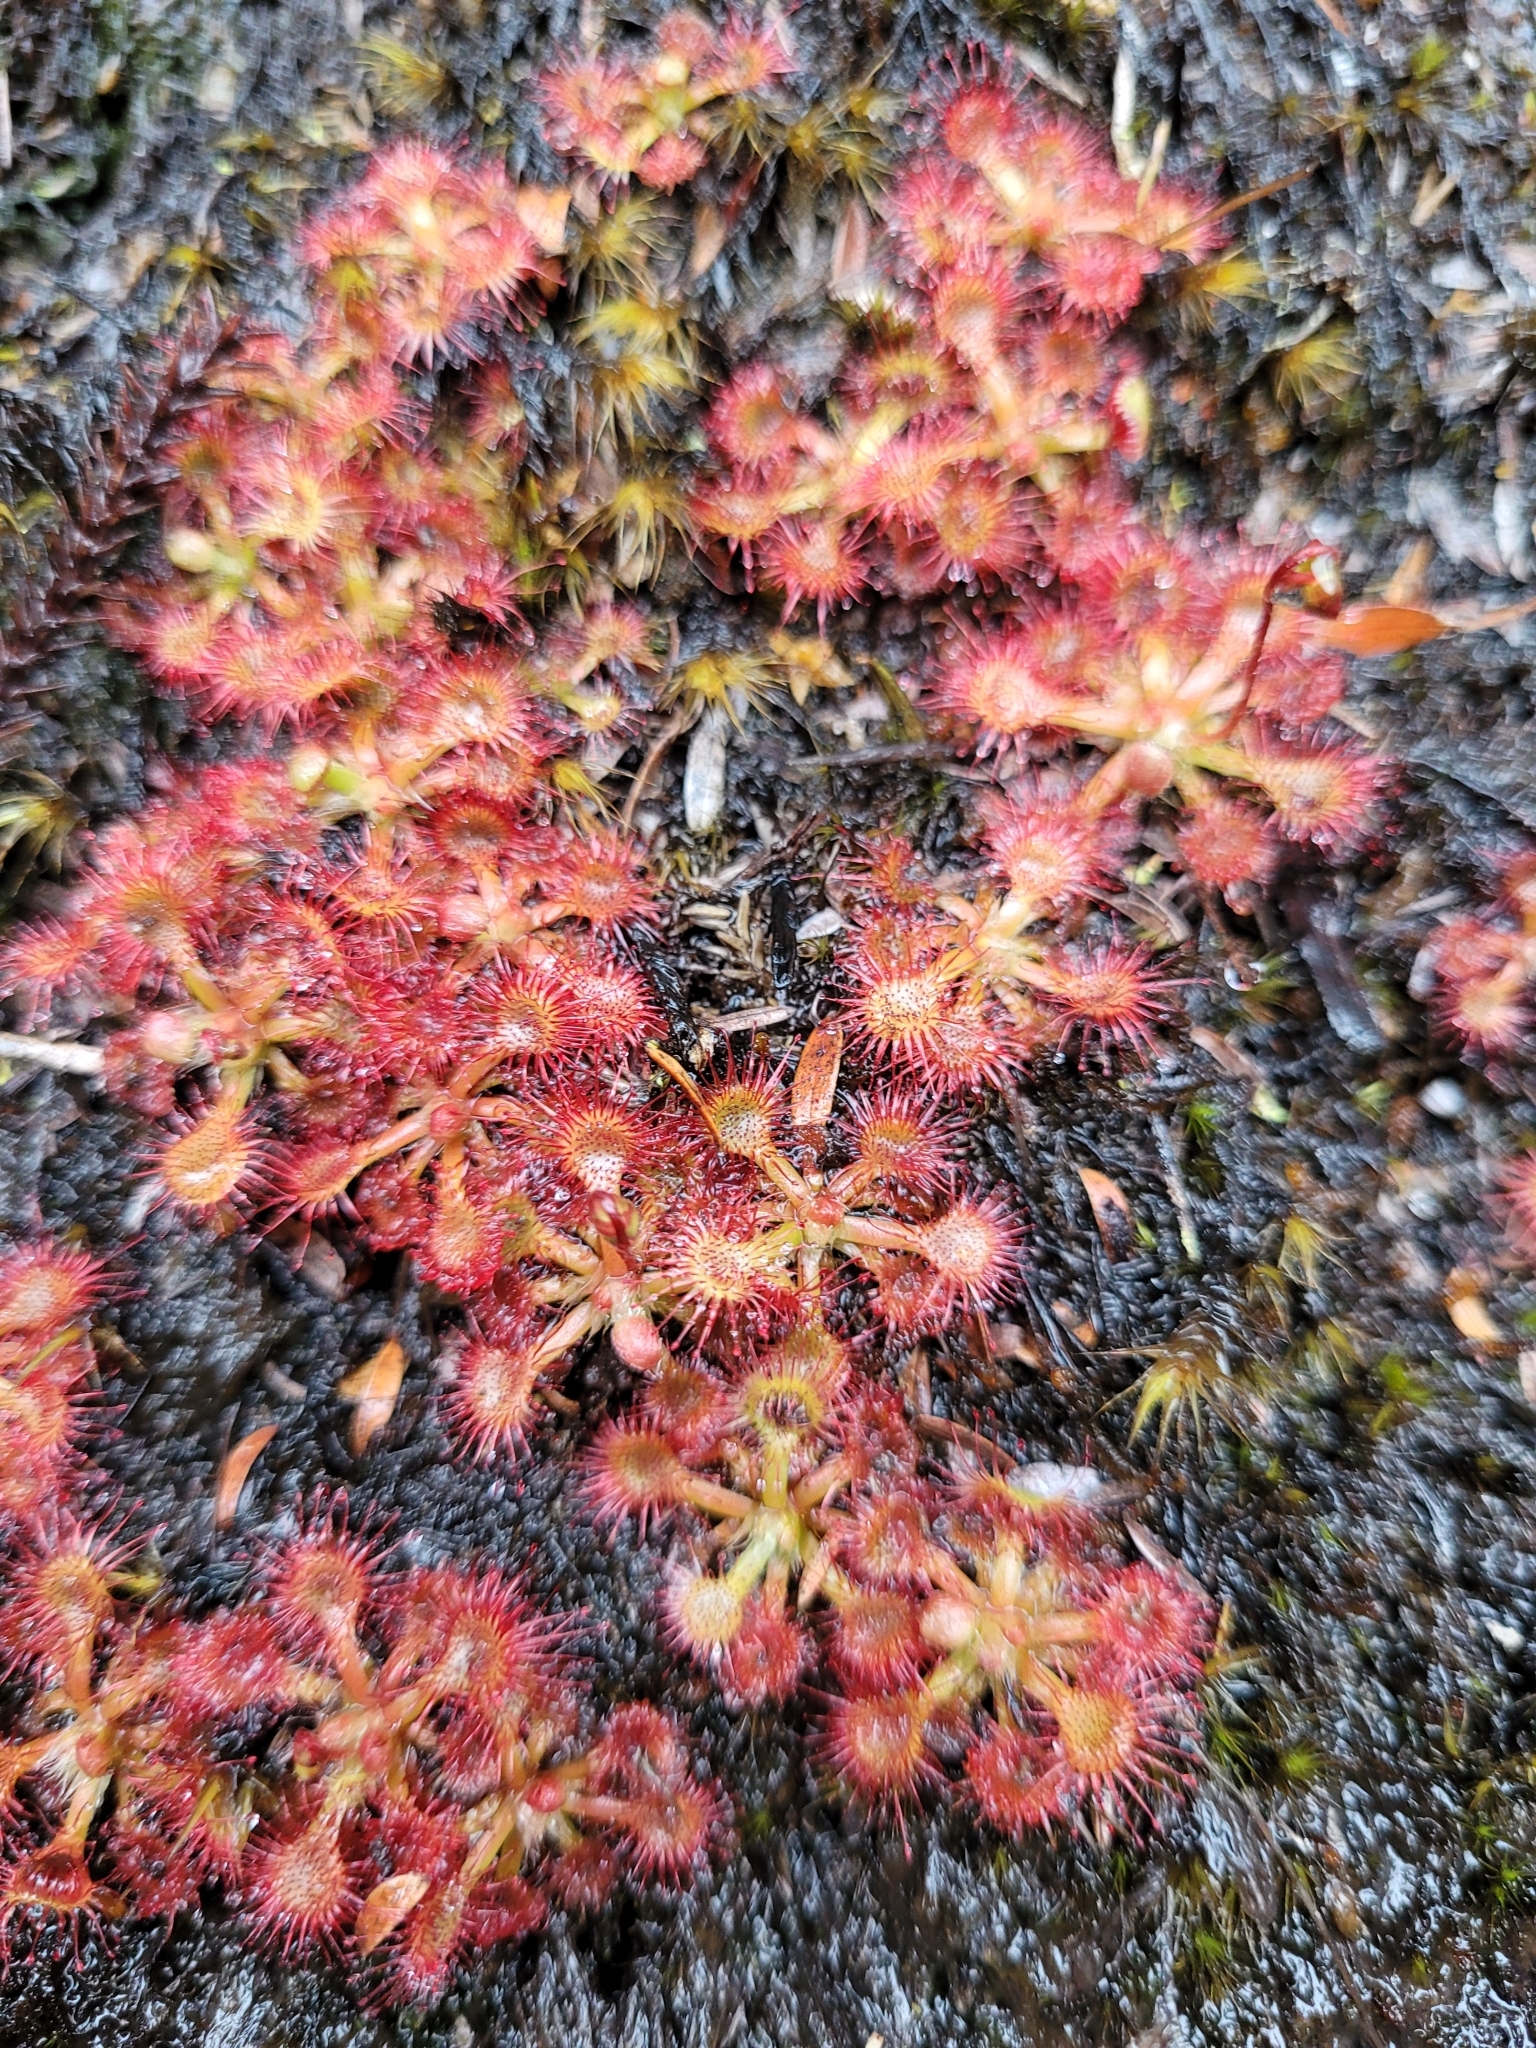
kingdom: Plantae
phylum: Tracheophyta
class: Magnoliopsida
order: Caryophyllales
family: Droseraceae
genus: Drosera
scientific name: Drosera spatulata
